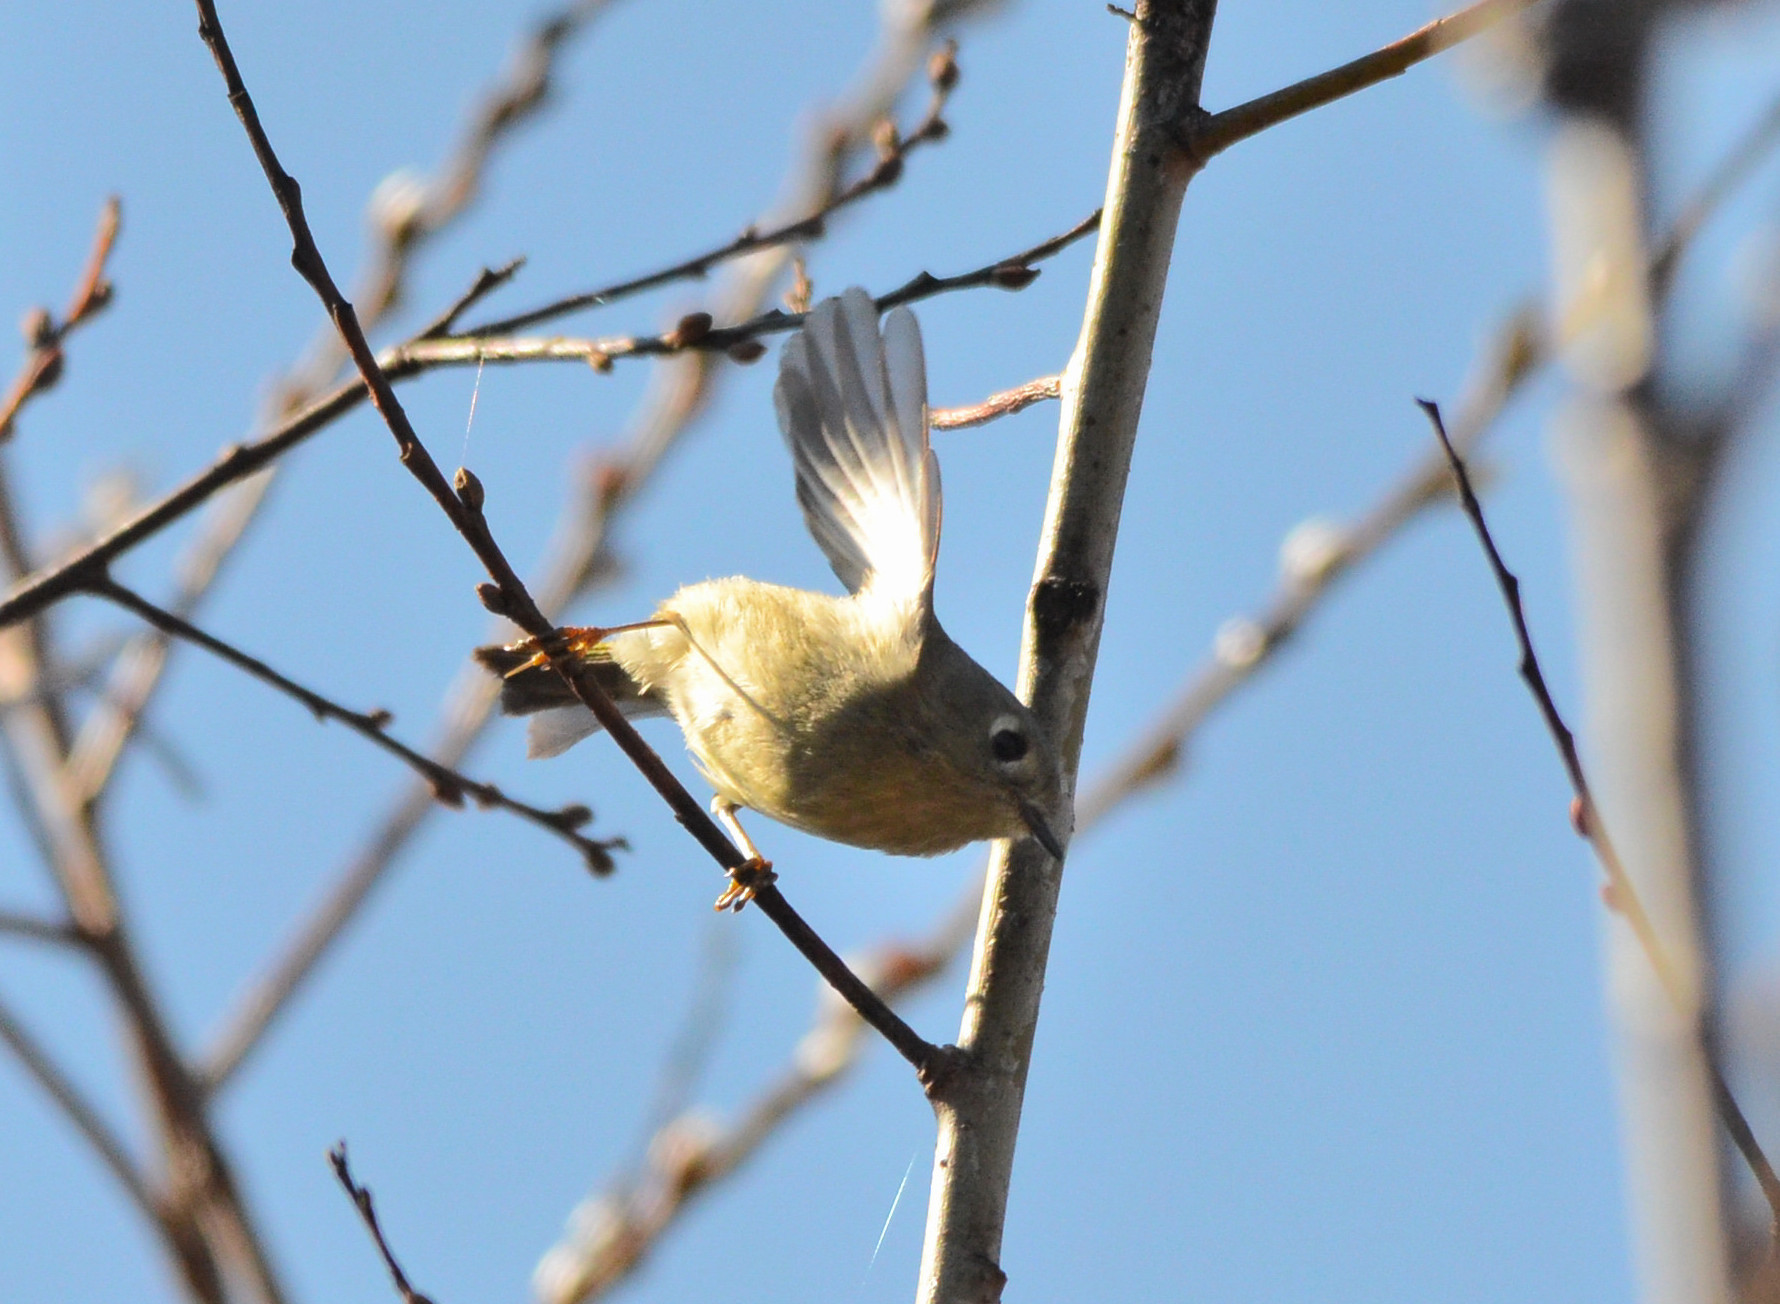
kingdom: Animalia
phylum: Chordata
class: Aves
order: Passeriformes
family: Regulidae
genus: Regulus
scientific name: Regulus calendula
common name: Ruby-crowned kinglet
